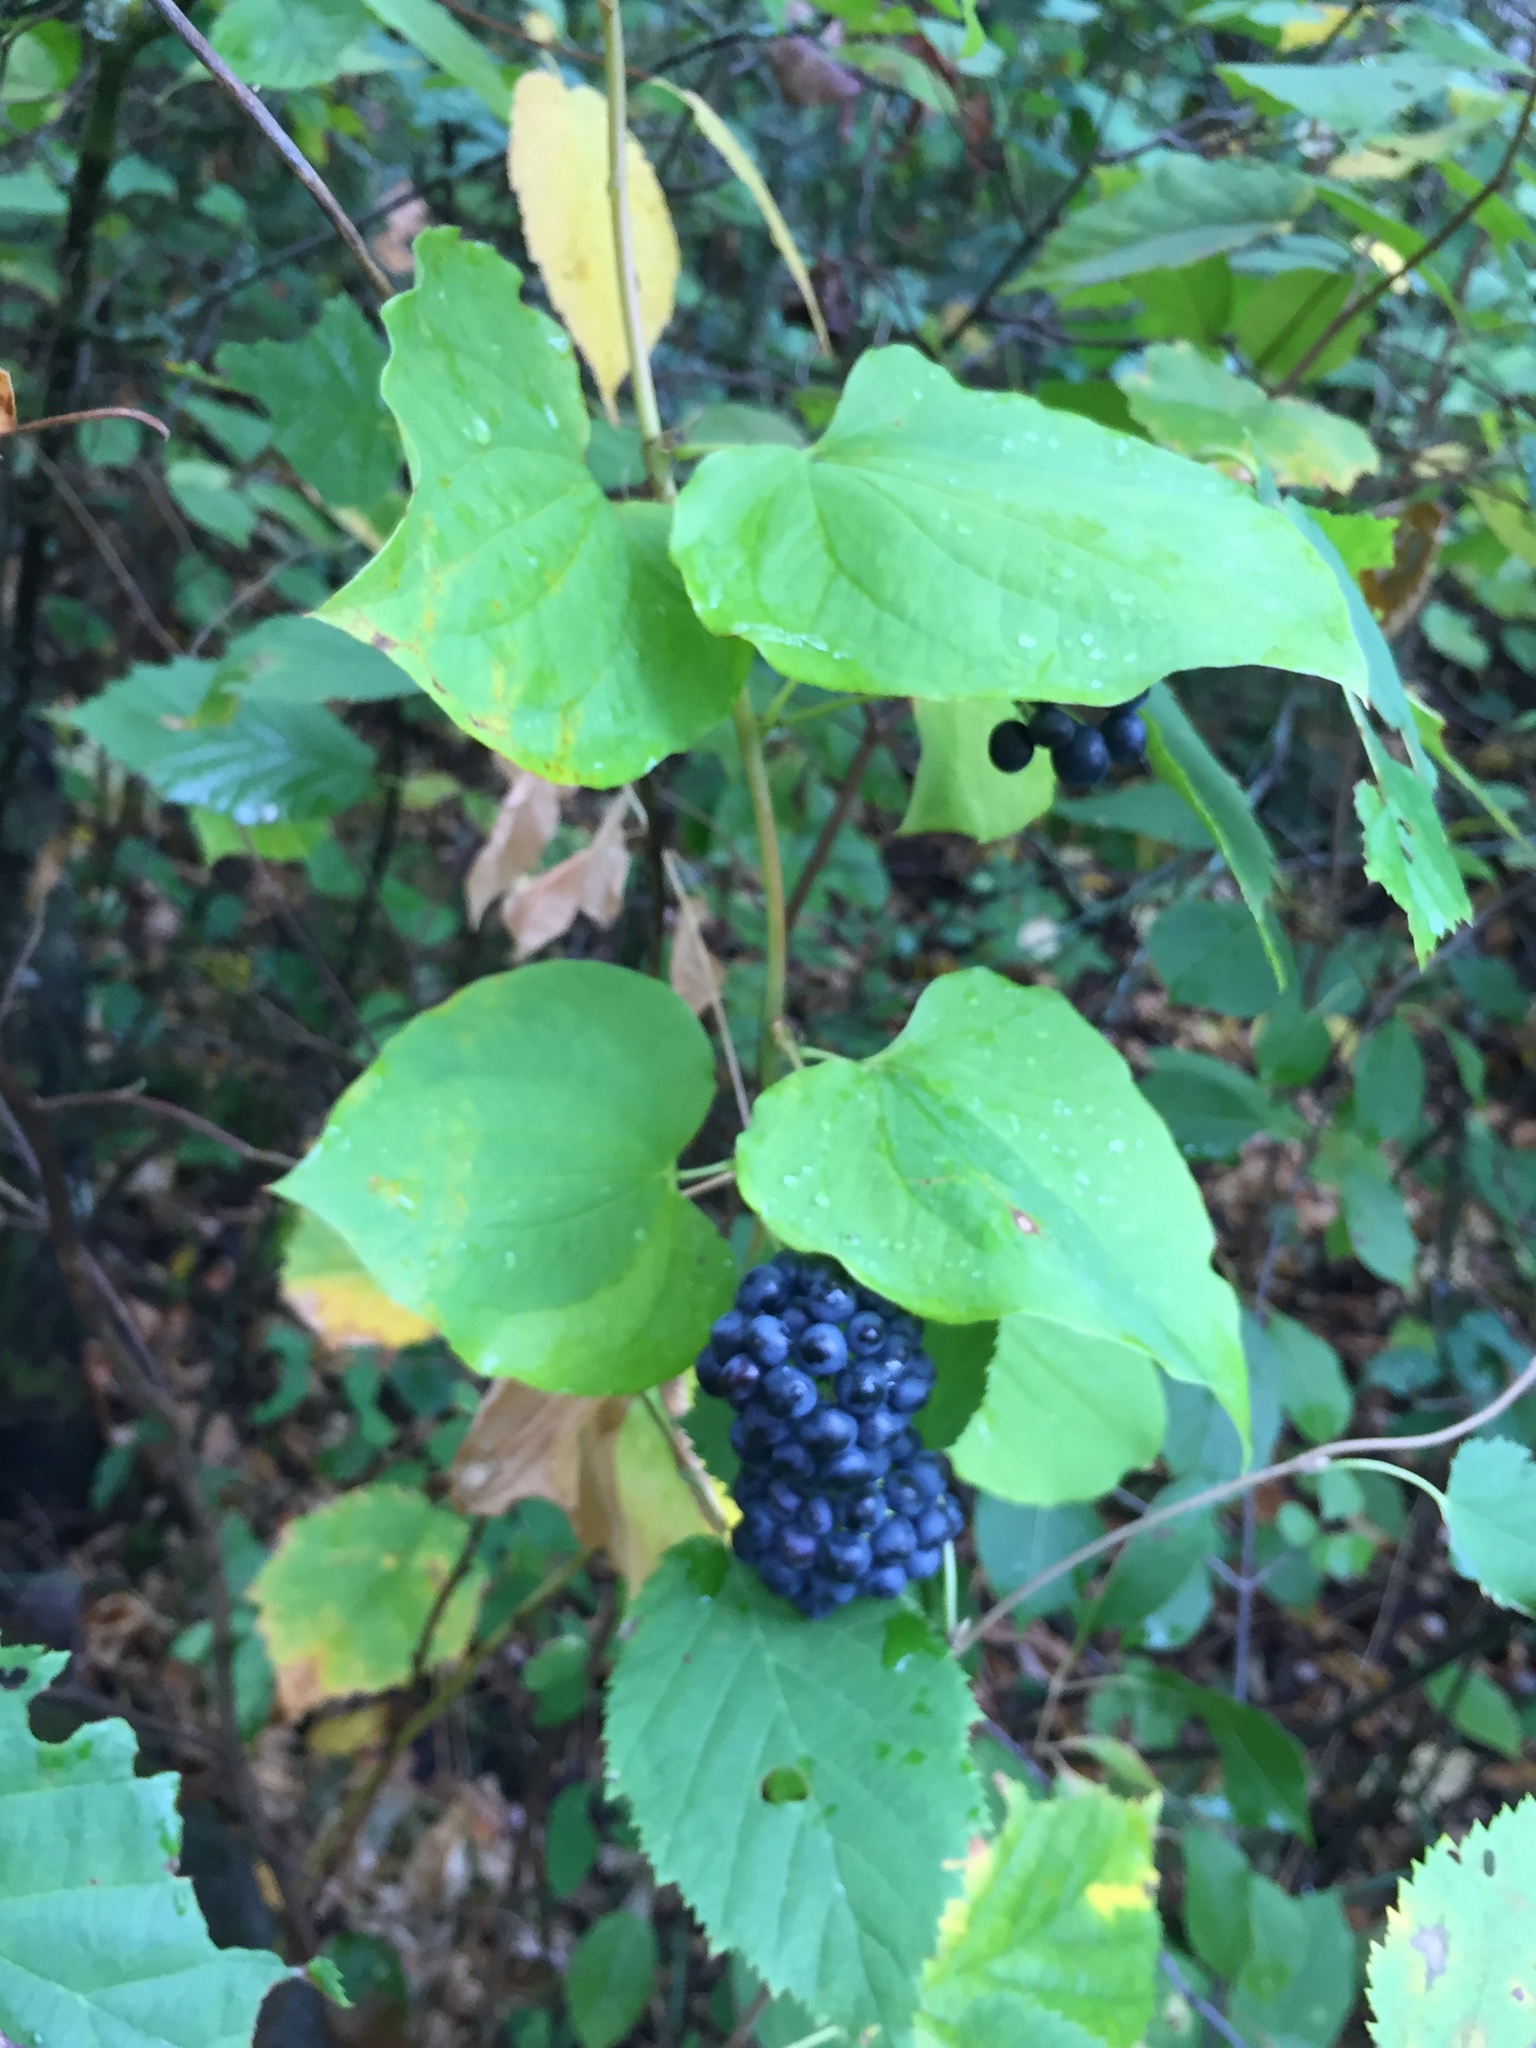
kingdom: Plantae
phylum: Tracheophyta
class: Liliopsida
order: Liliales
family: Smilacaceae
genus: Smilax
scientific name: Smilax lasioneura
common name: Blue ridge carrionflower
